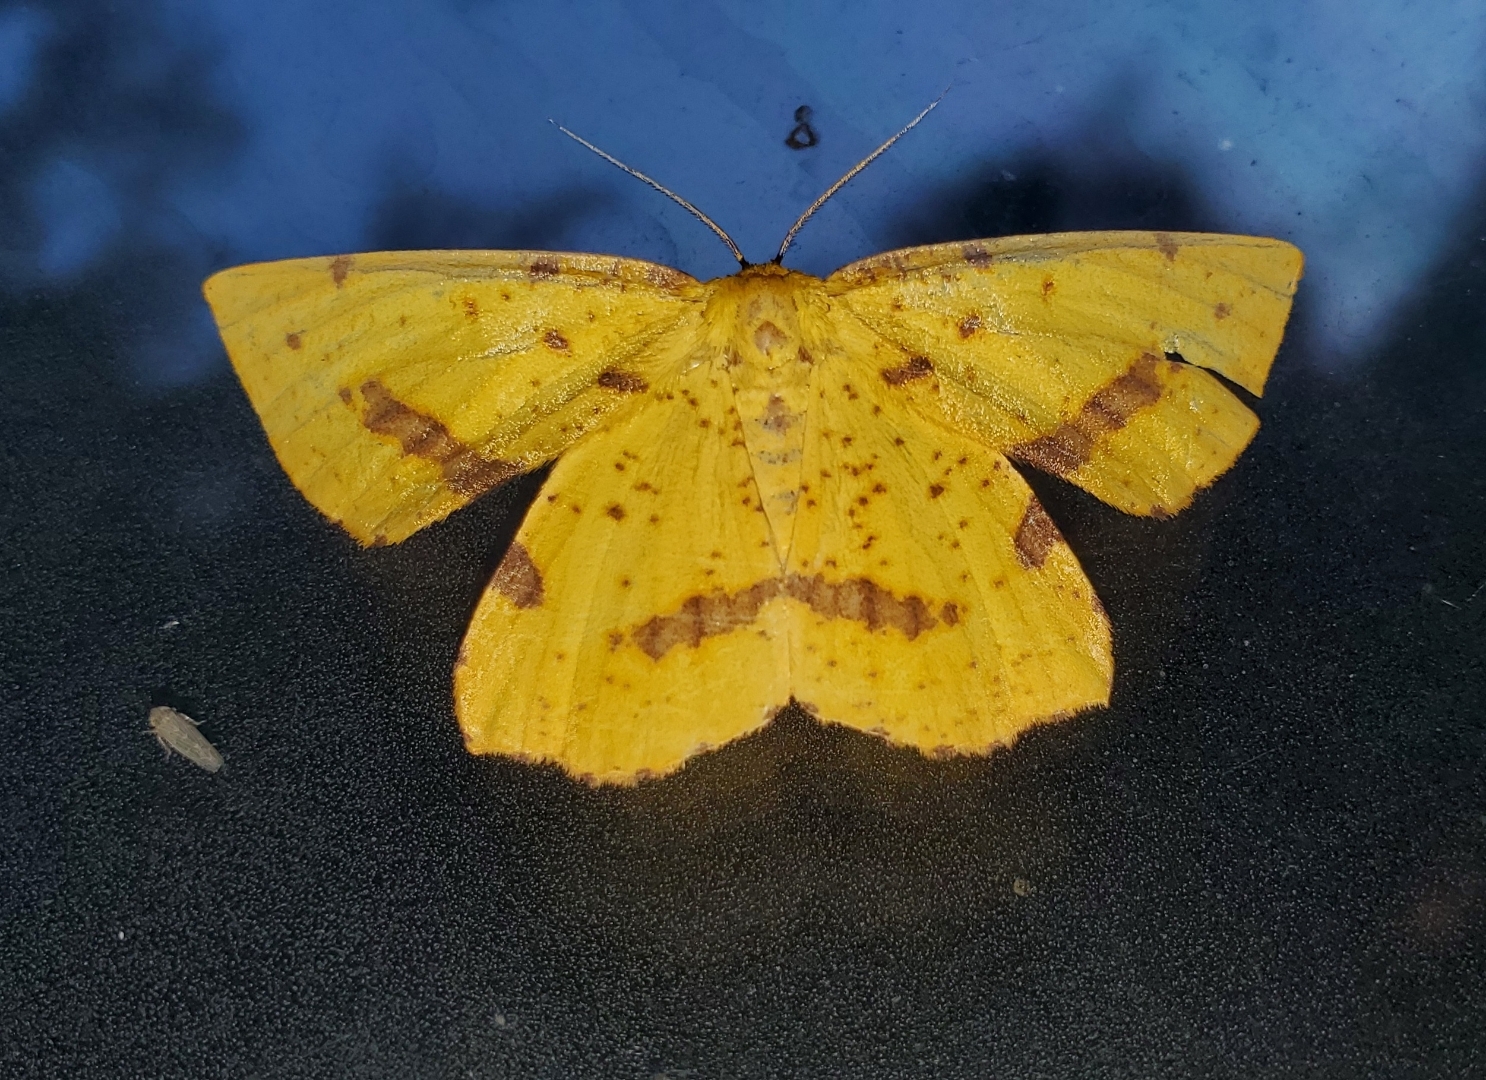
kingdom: Animalia
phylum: Arthropoda
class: Insecta
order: Lepidoptera
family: Geometridae
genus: Xanthotype
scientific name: Xanthotype
